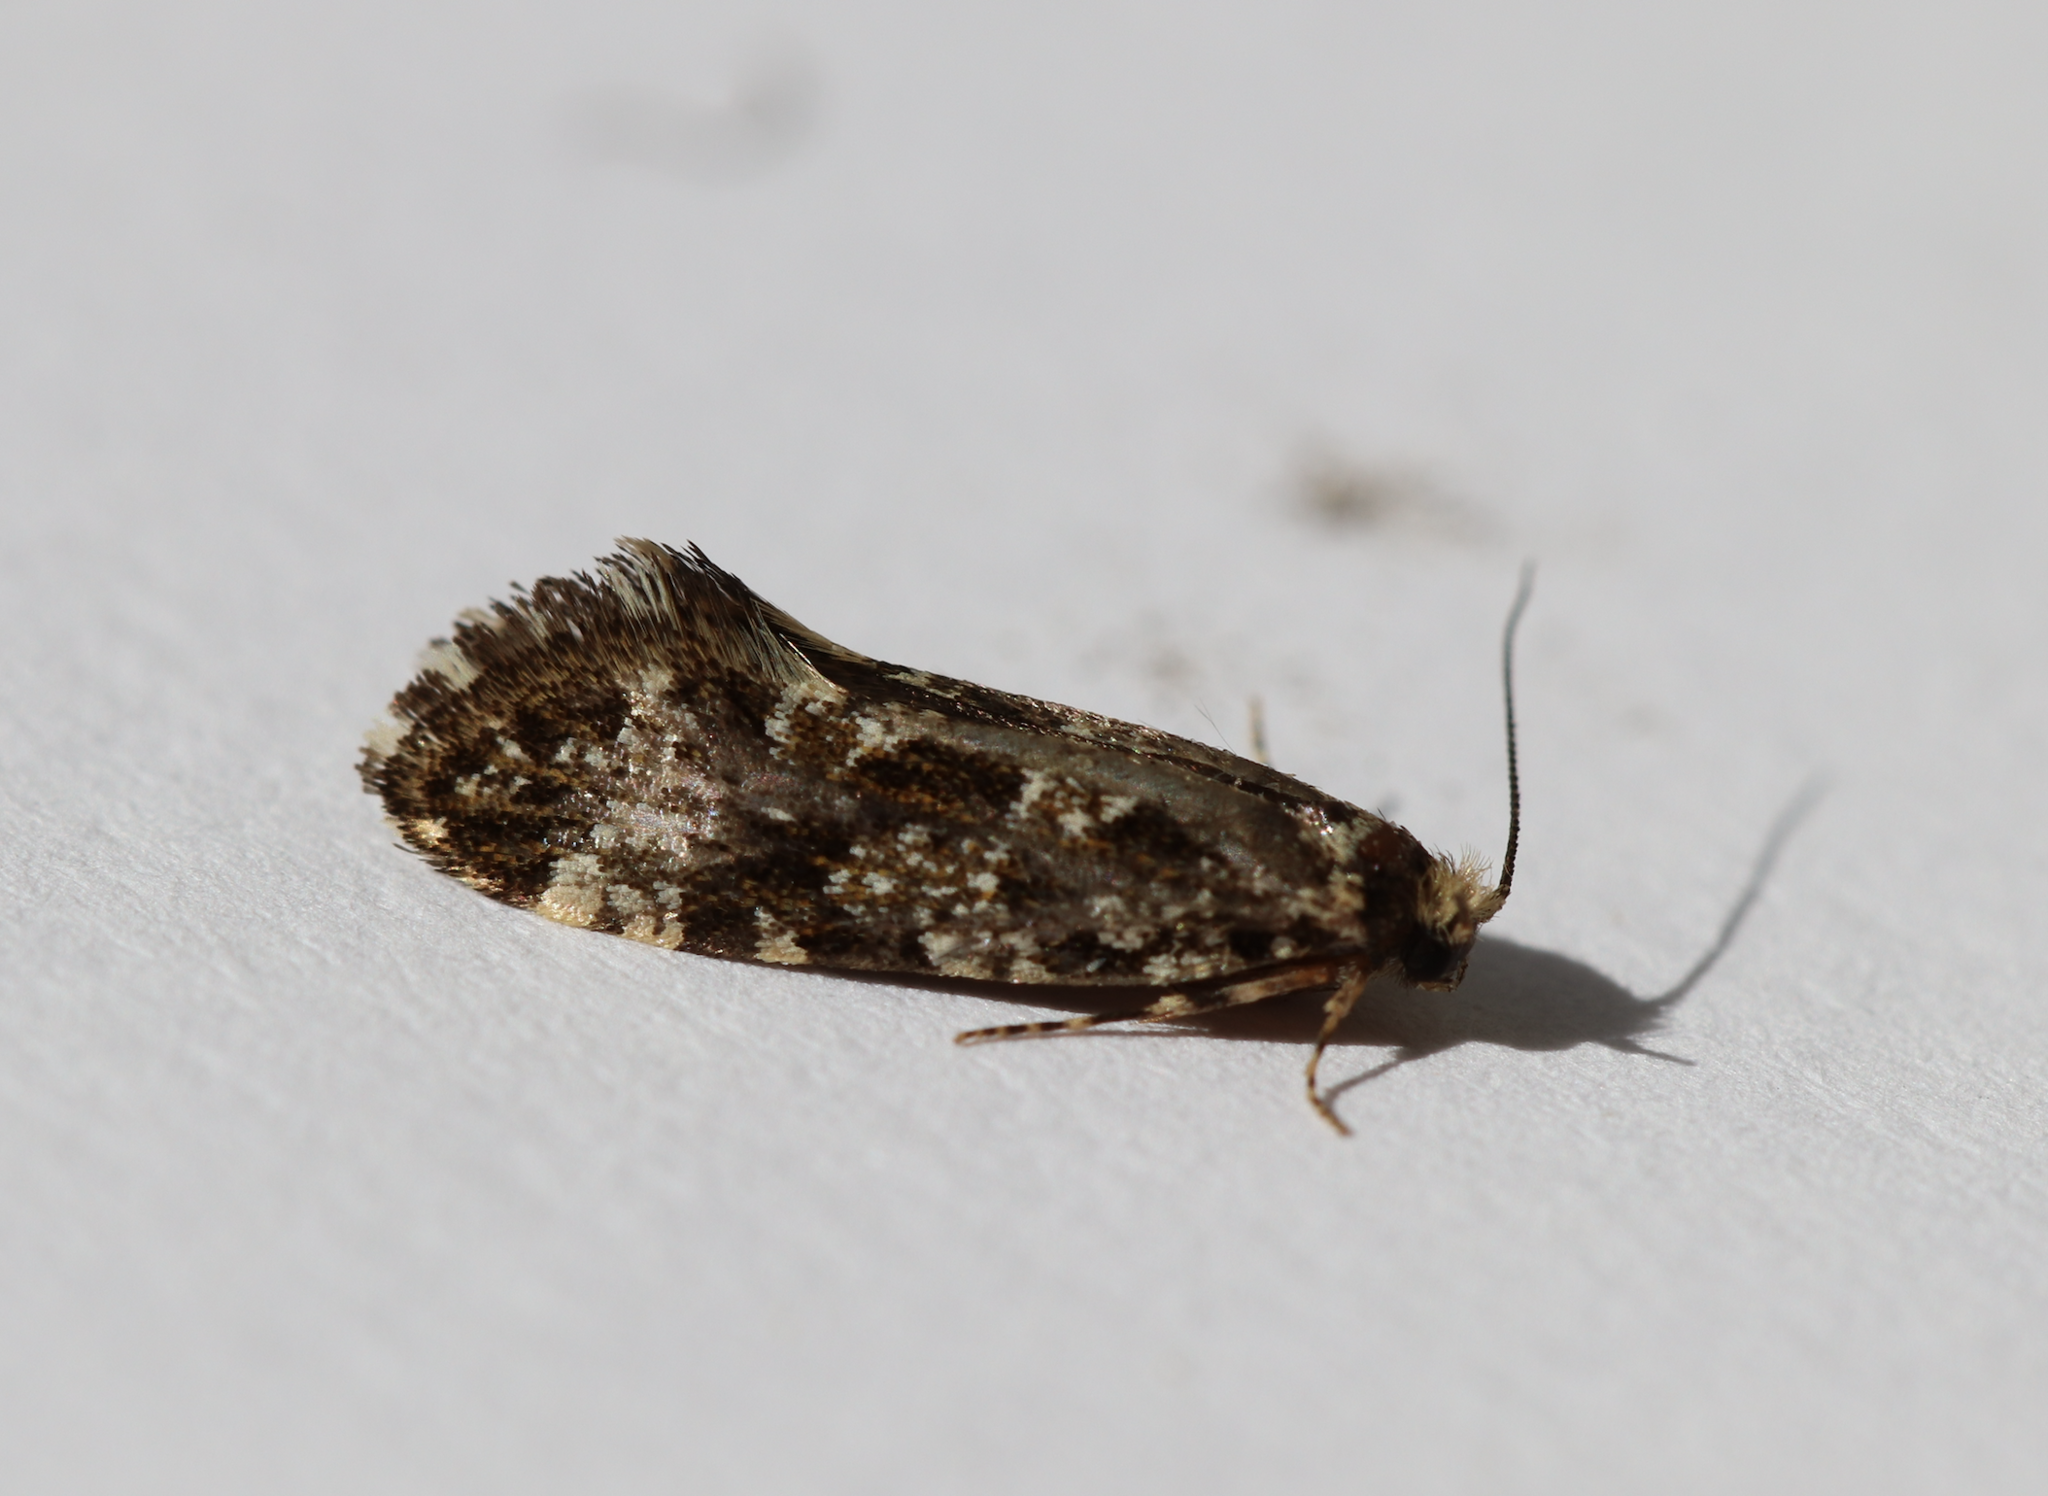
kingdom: Animalia
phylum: Arthropoda
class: Insecta
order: Lepidoptera
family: Tineidae
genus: Triaxomera
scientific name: Triaxomera parasitella
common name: Large brindled clothes
